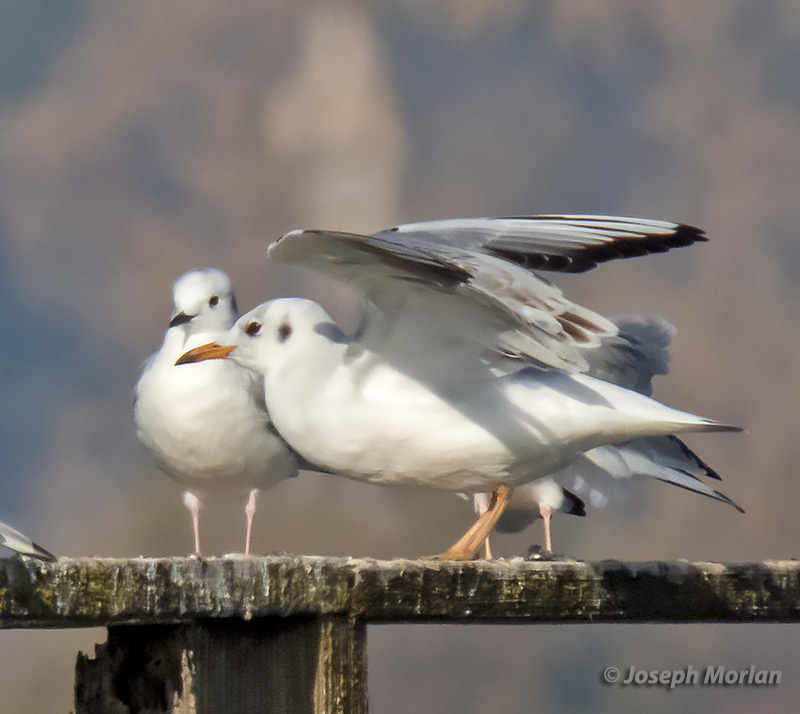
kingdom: Animalia
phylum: Chordata
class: Aves
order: Charadriiformes
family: Laridae
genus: Chroicocephalus
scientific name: Chroicocephalus ridibundus
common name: Black-headed gull
